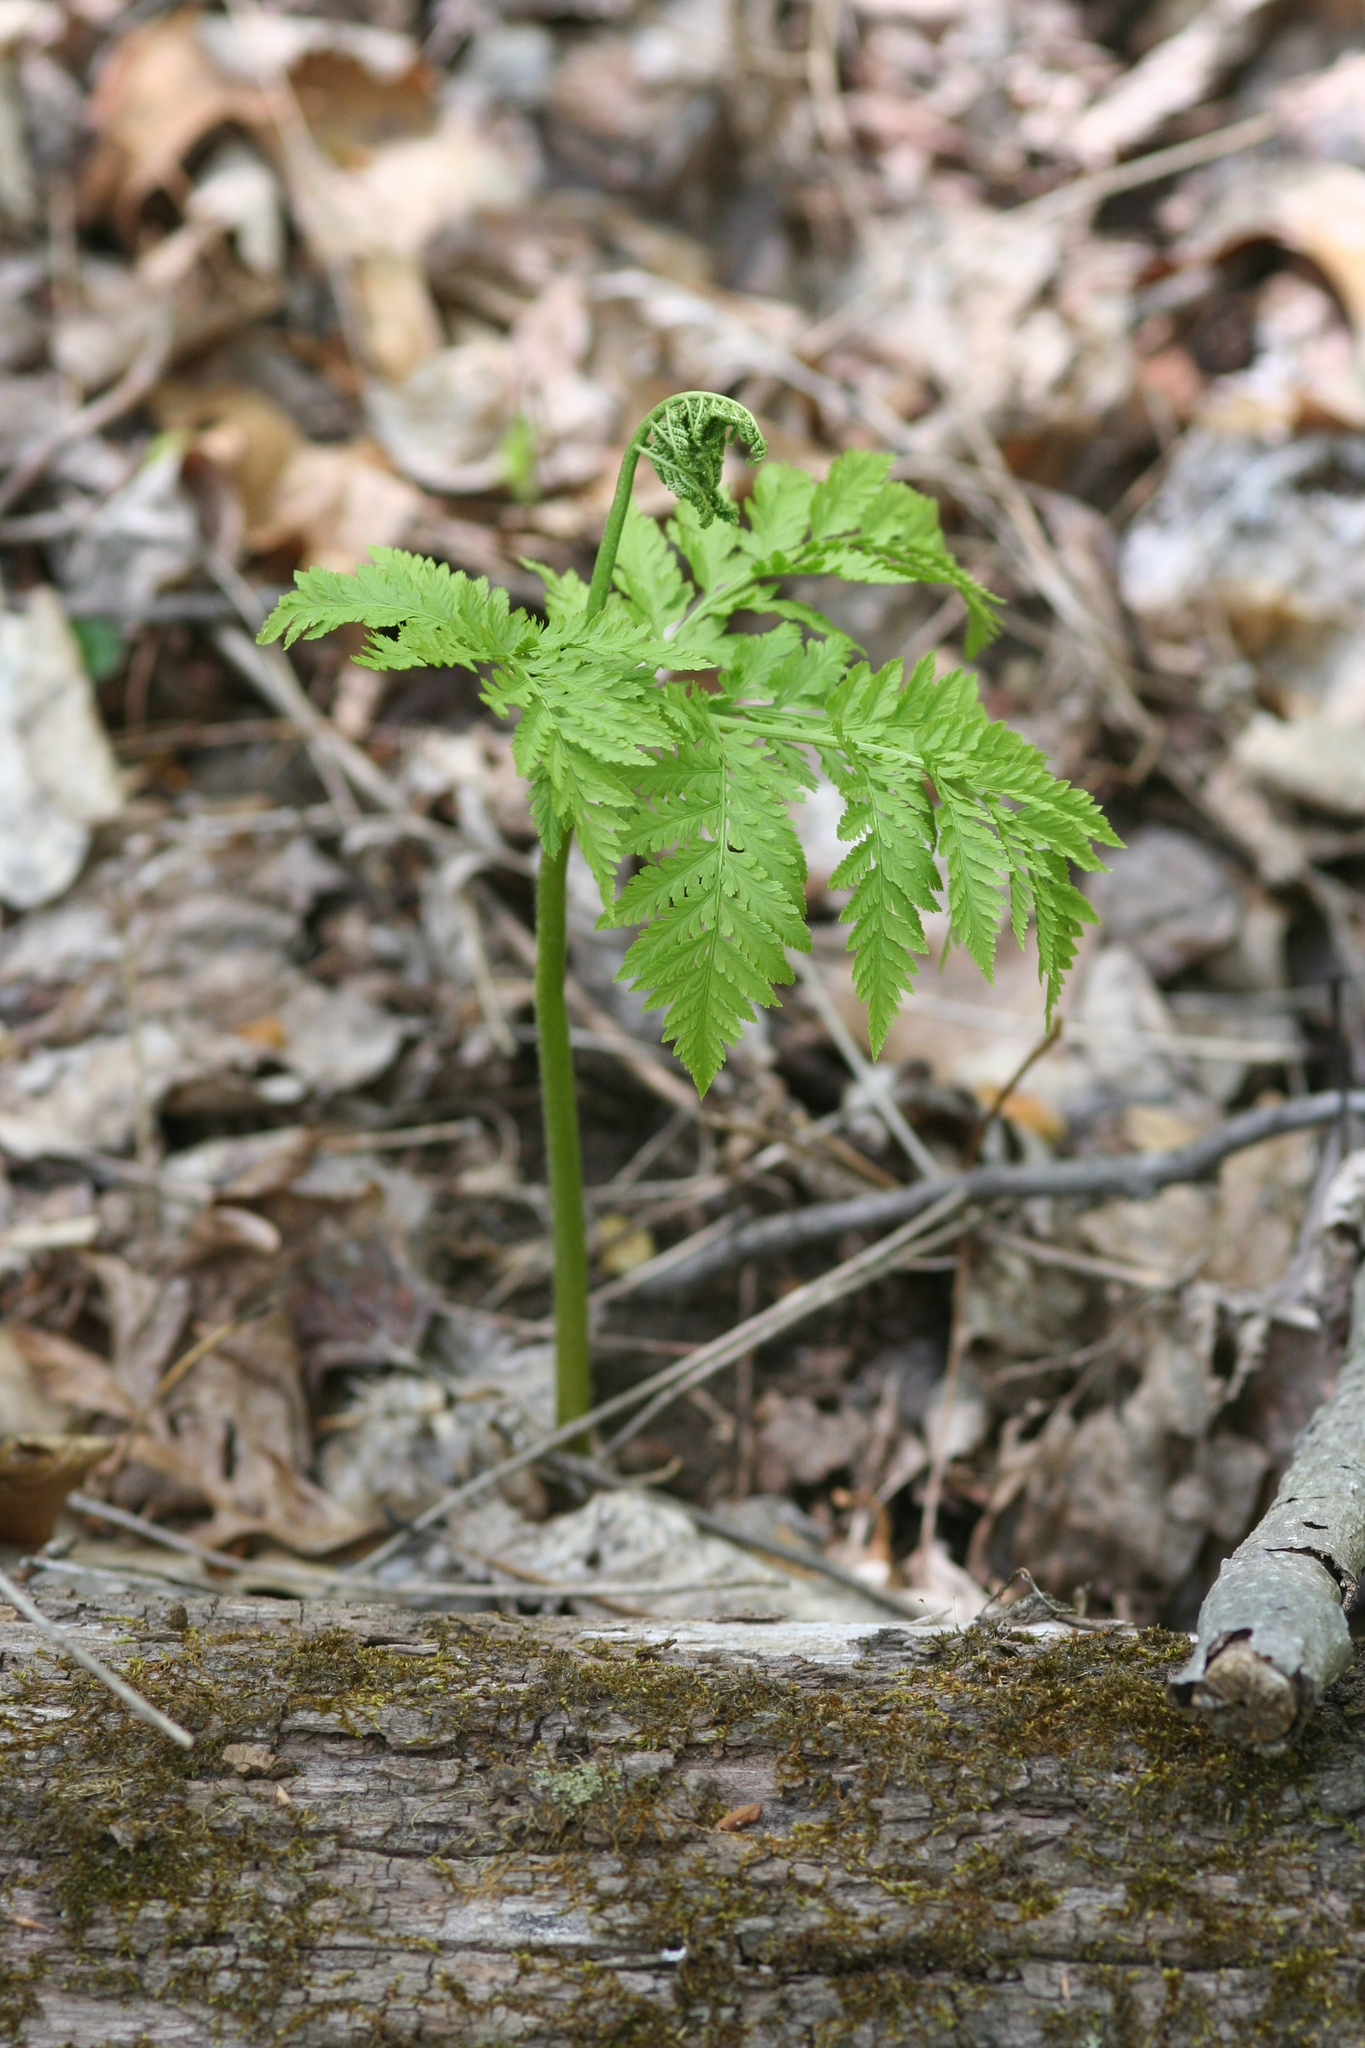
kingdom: Plantae
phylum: Tracheophyta
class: Polypodiopsida
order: Ophioglossales
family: Ophioglossaceae
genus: Botrypus
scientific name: Botrypus virginianus
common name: Common grapefern
